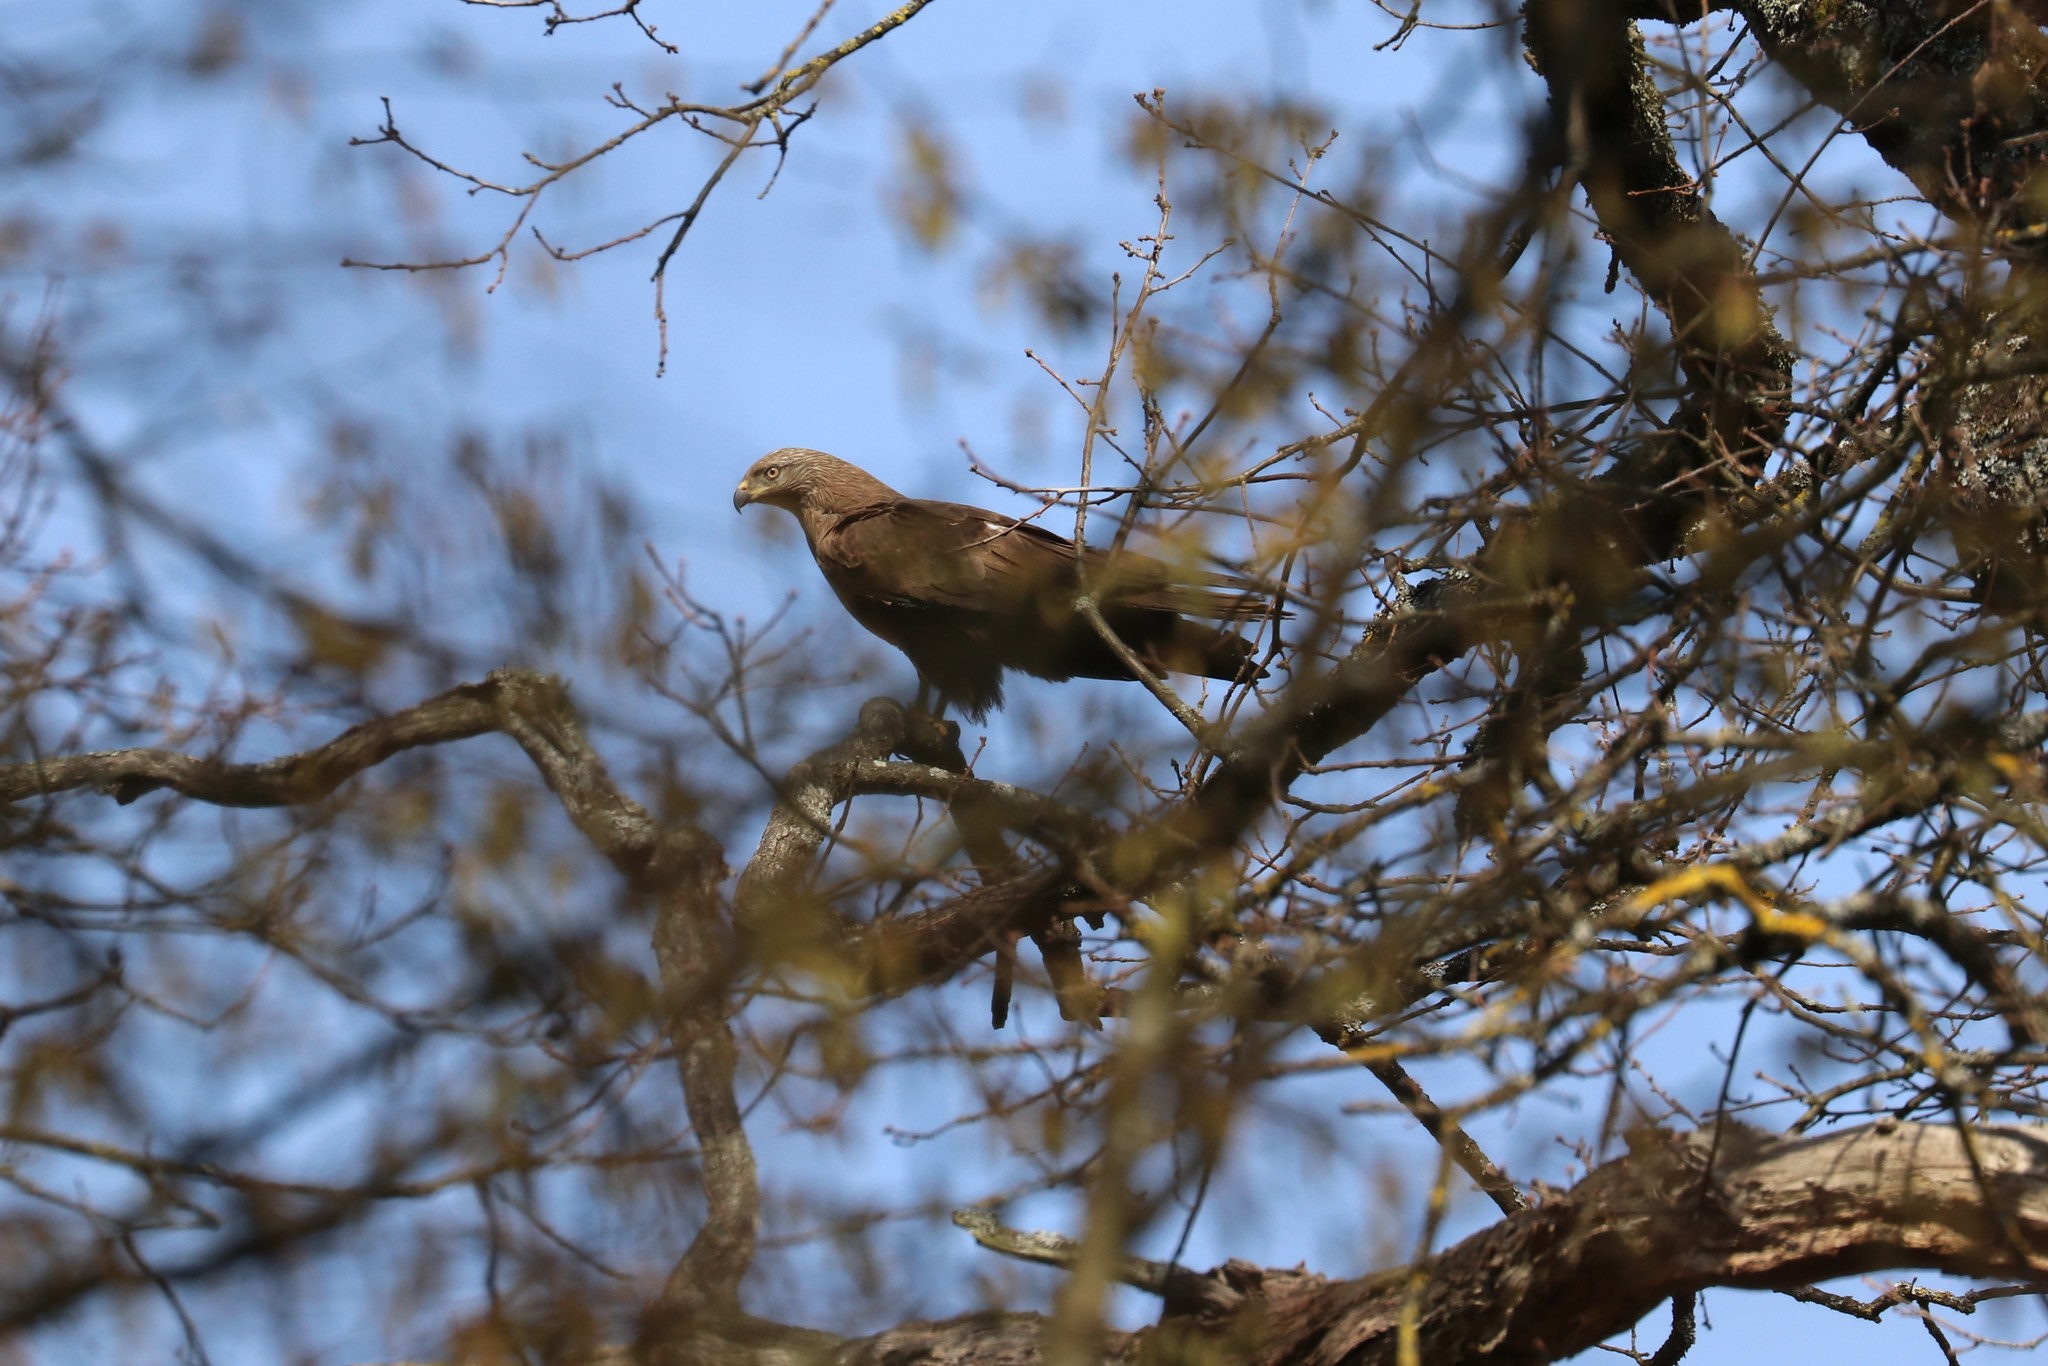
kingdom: Animalia
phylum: Chordata
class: Aves
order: Accipitriformes
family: Accipitridae
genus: Milvus
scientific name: Milvus migrans
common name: Black kite
